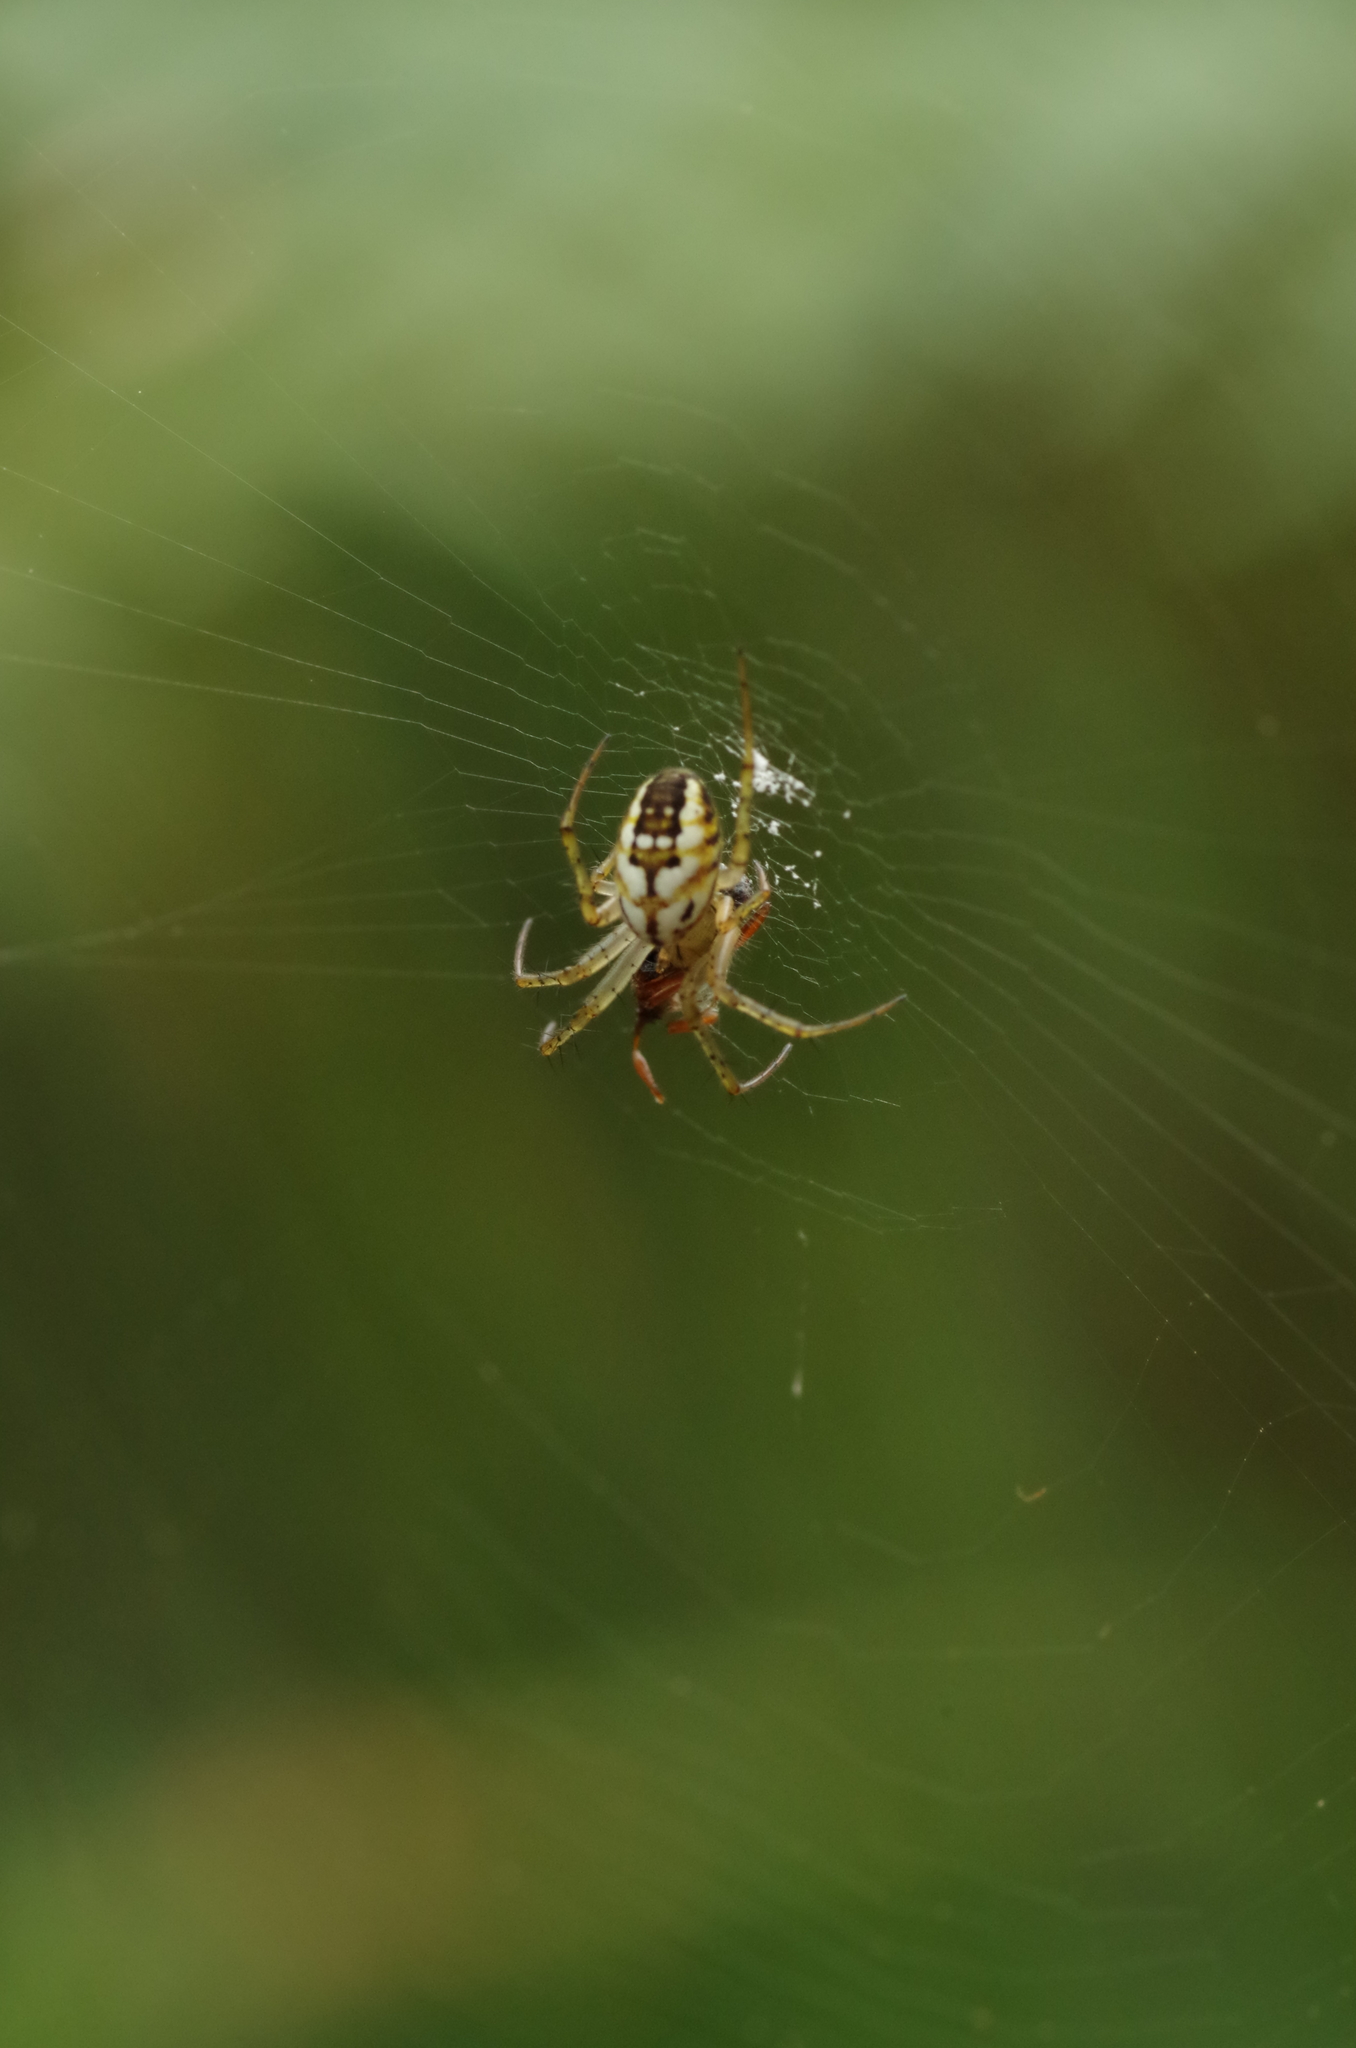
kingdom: Animalia
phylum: Arthropoda
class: Arachnida
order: Araneae
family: Araneidae
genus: Mangora
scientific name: Mangora acalypha
